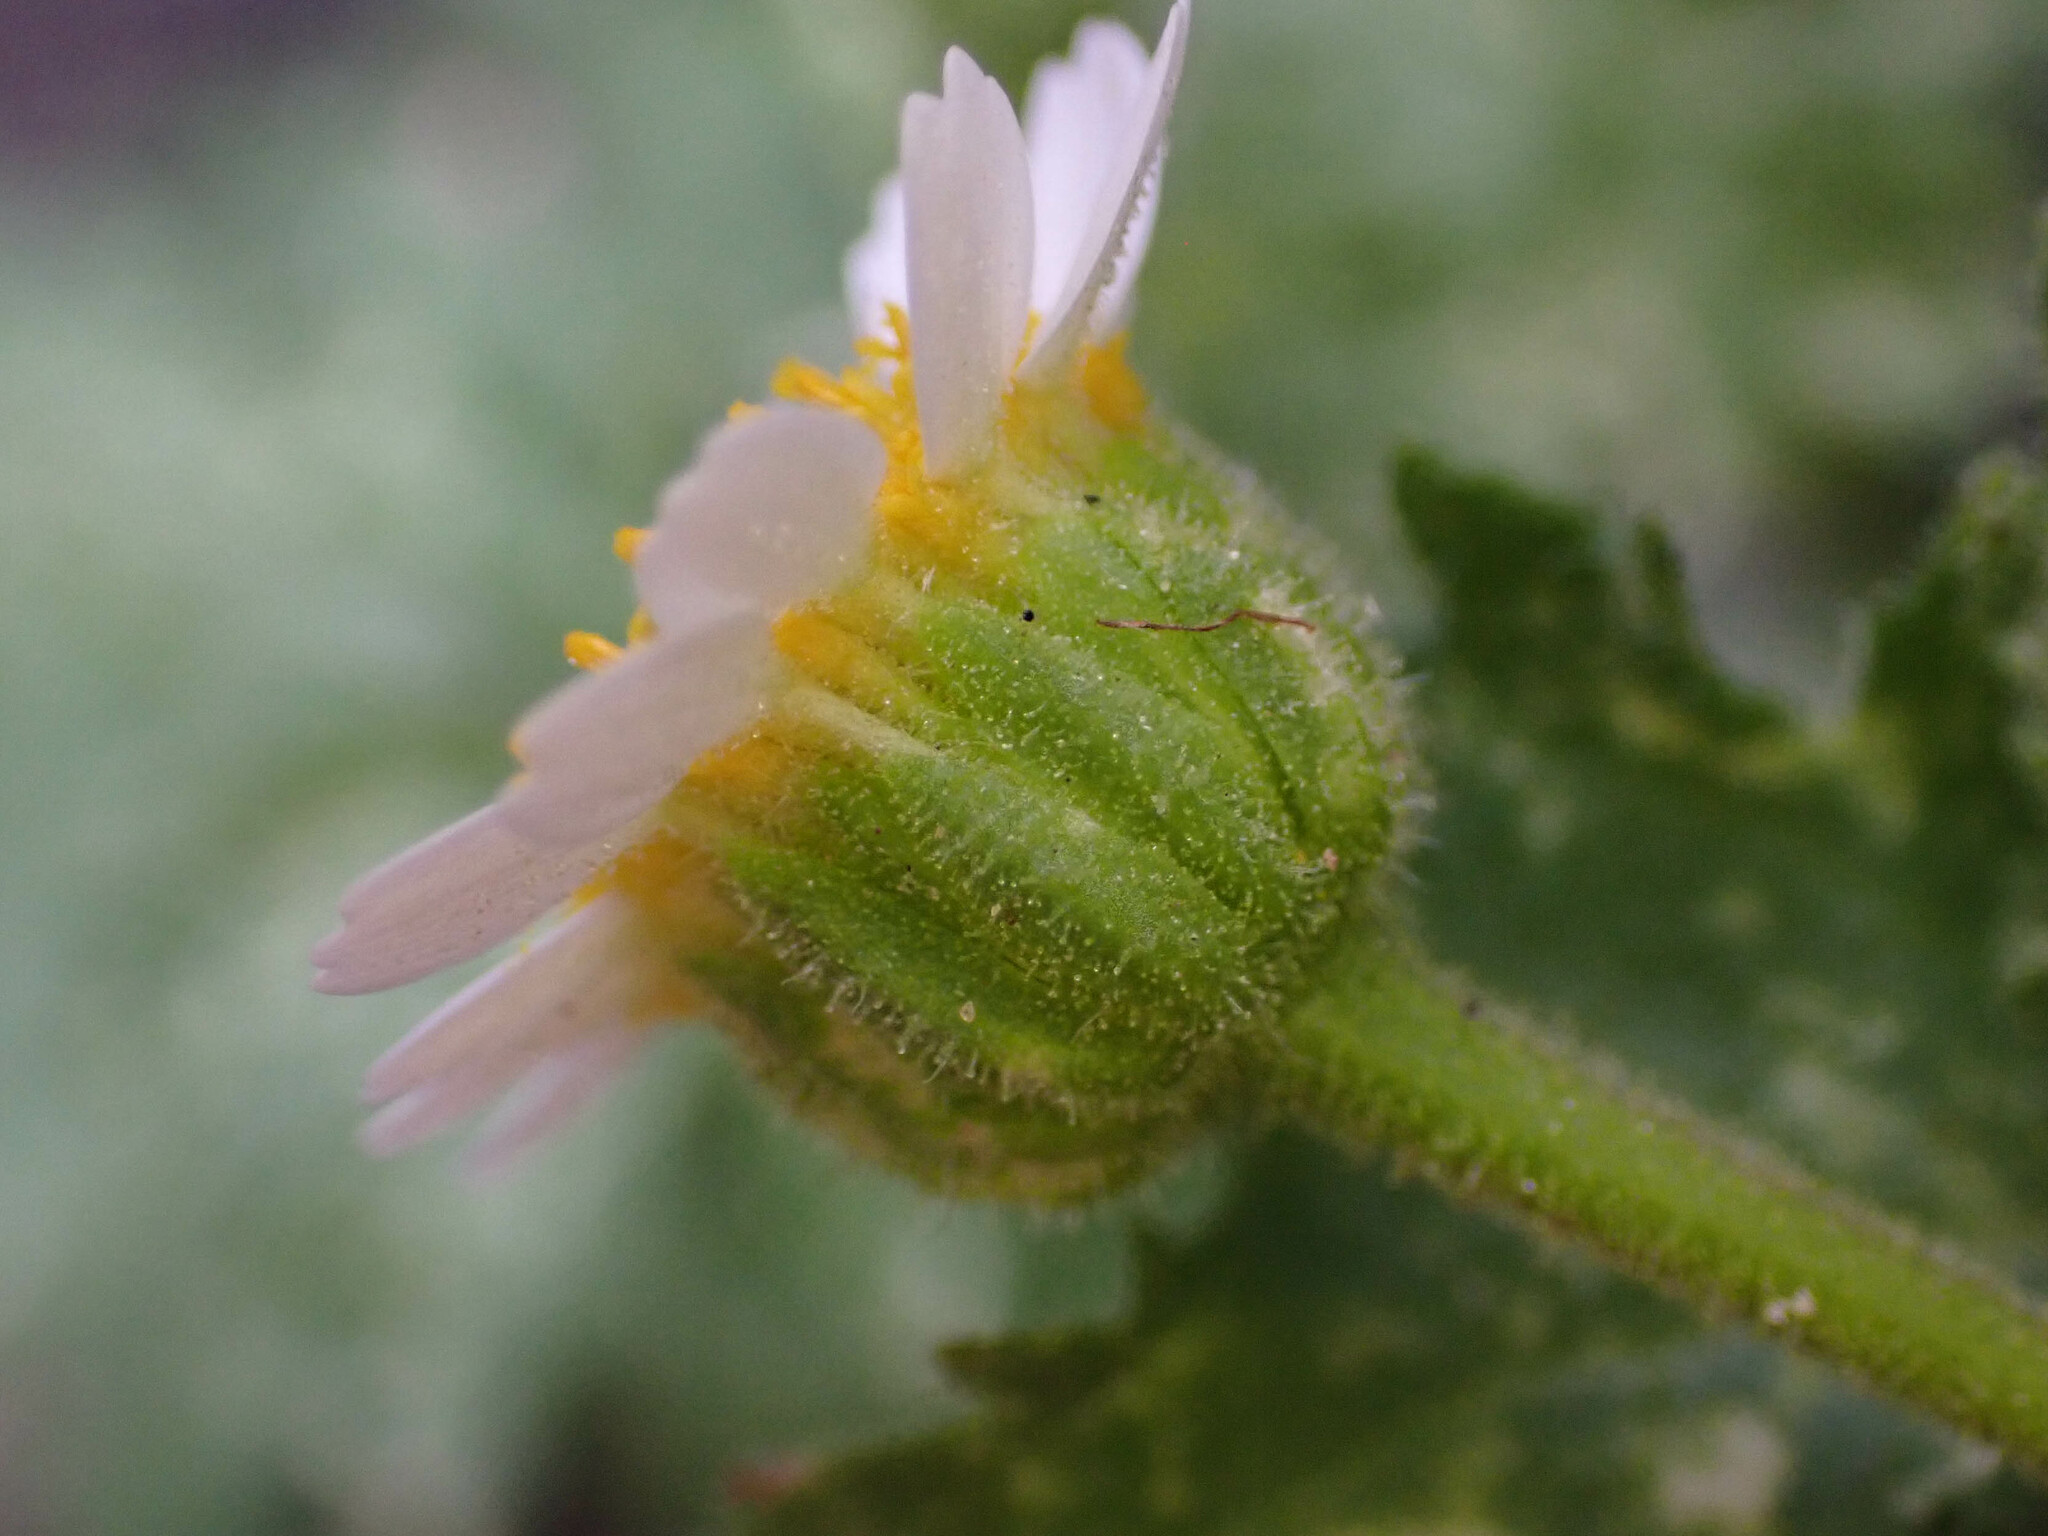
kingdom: Plantae
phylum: Tracheophyta
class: Magnoliopsida
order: Asterales
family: Asteraceae
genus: Laphamia
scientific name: Laphamia emoryi
